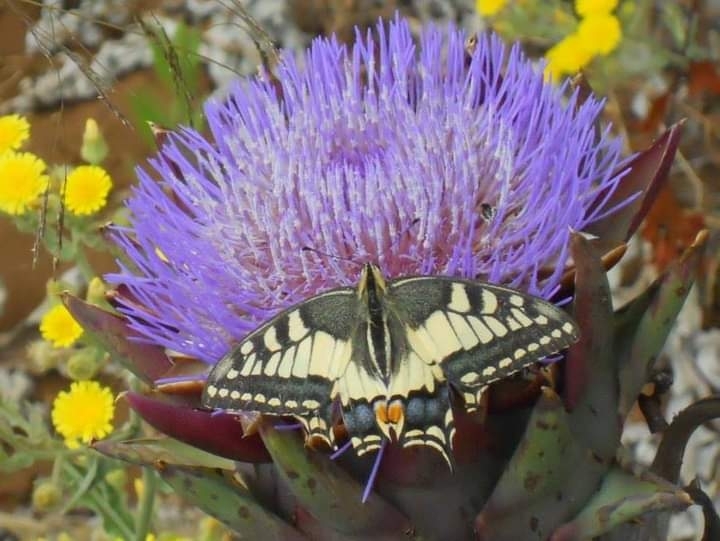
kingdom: Animalia
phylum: Arthropoda
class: Insecta
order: Lepidoptera
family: Papilionidae
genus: Papilio
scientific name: Papilio machaon
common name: Swallowtail
